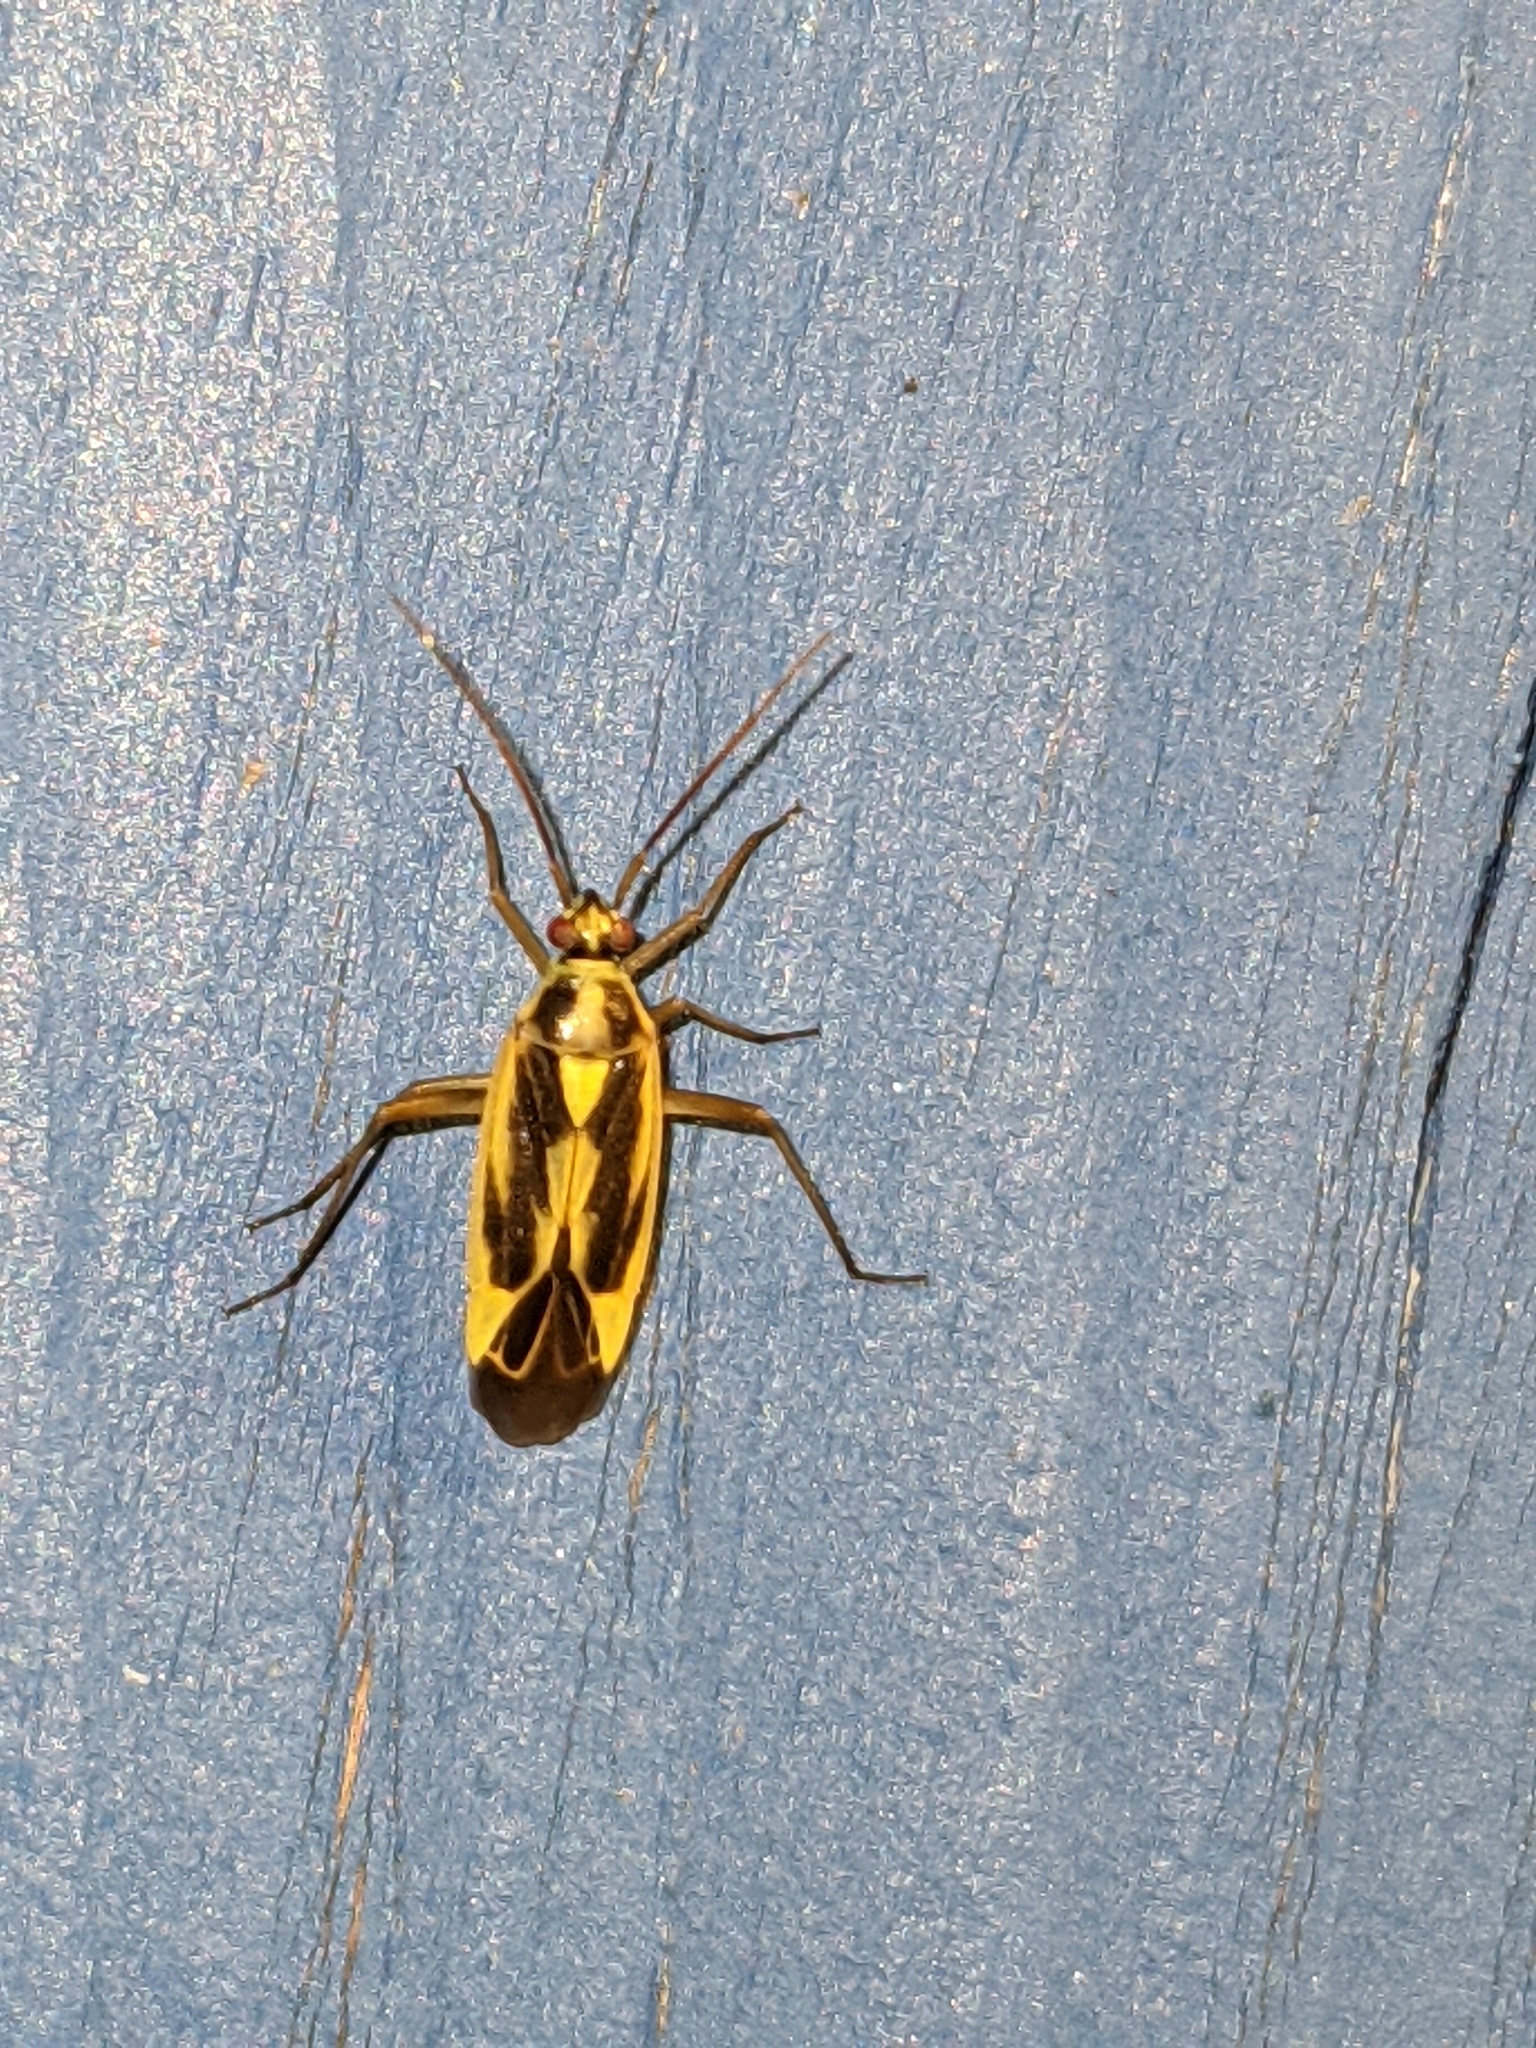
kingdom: Animalia
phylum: Arthropoda
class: Insecta
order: Hemiptera
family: Miridae
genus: Stenotus
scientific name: Stenotus binotatus
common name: Plant bug
